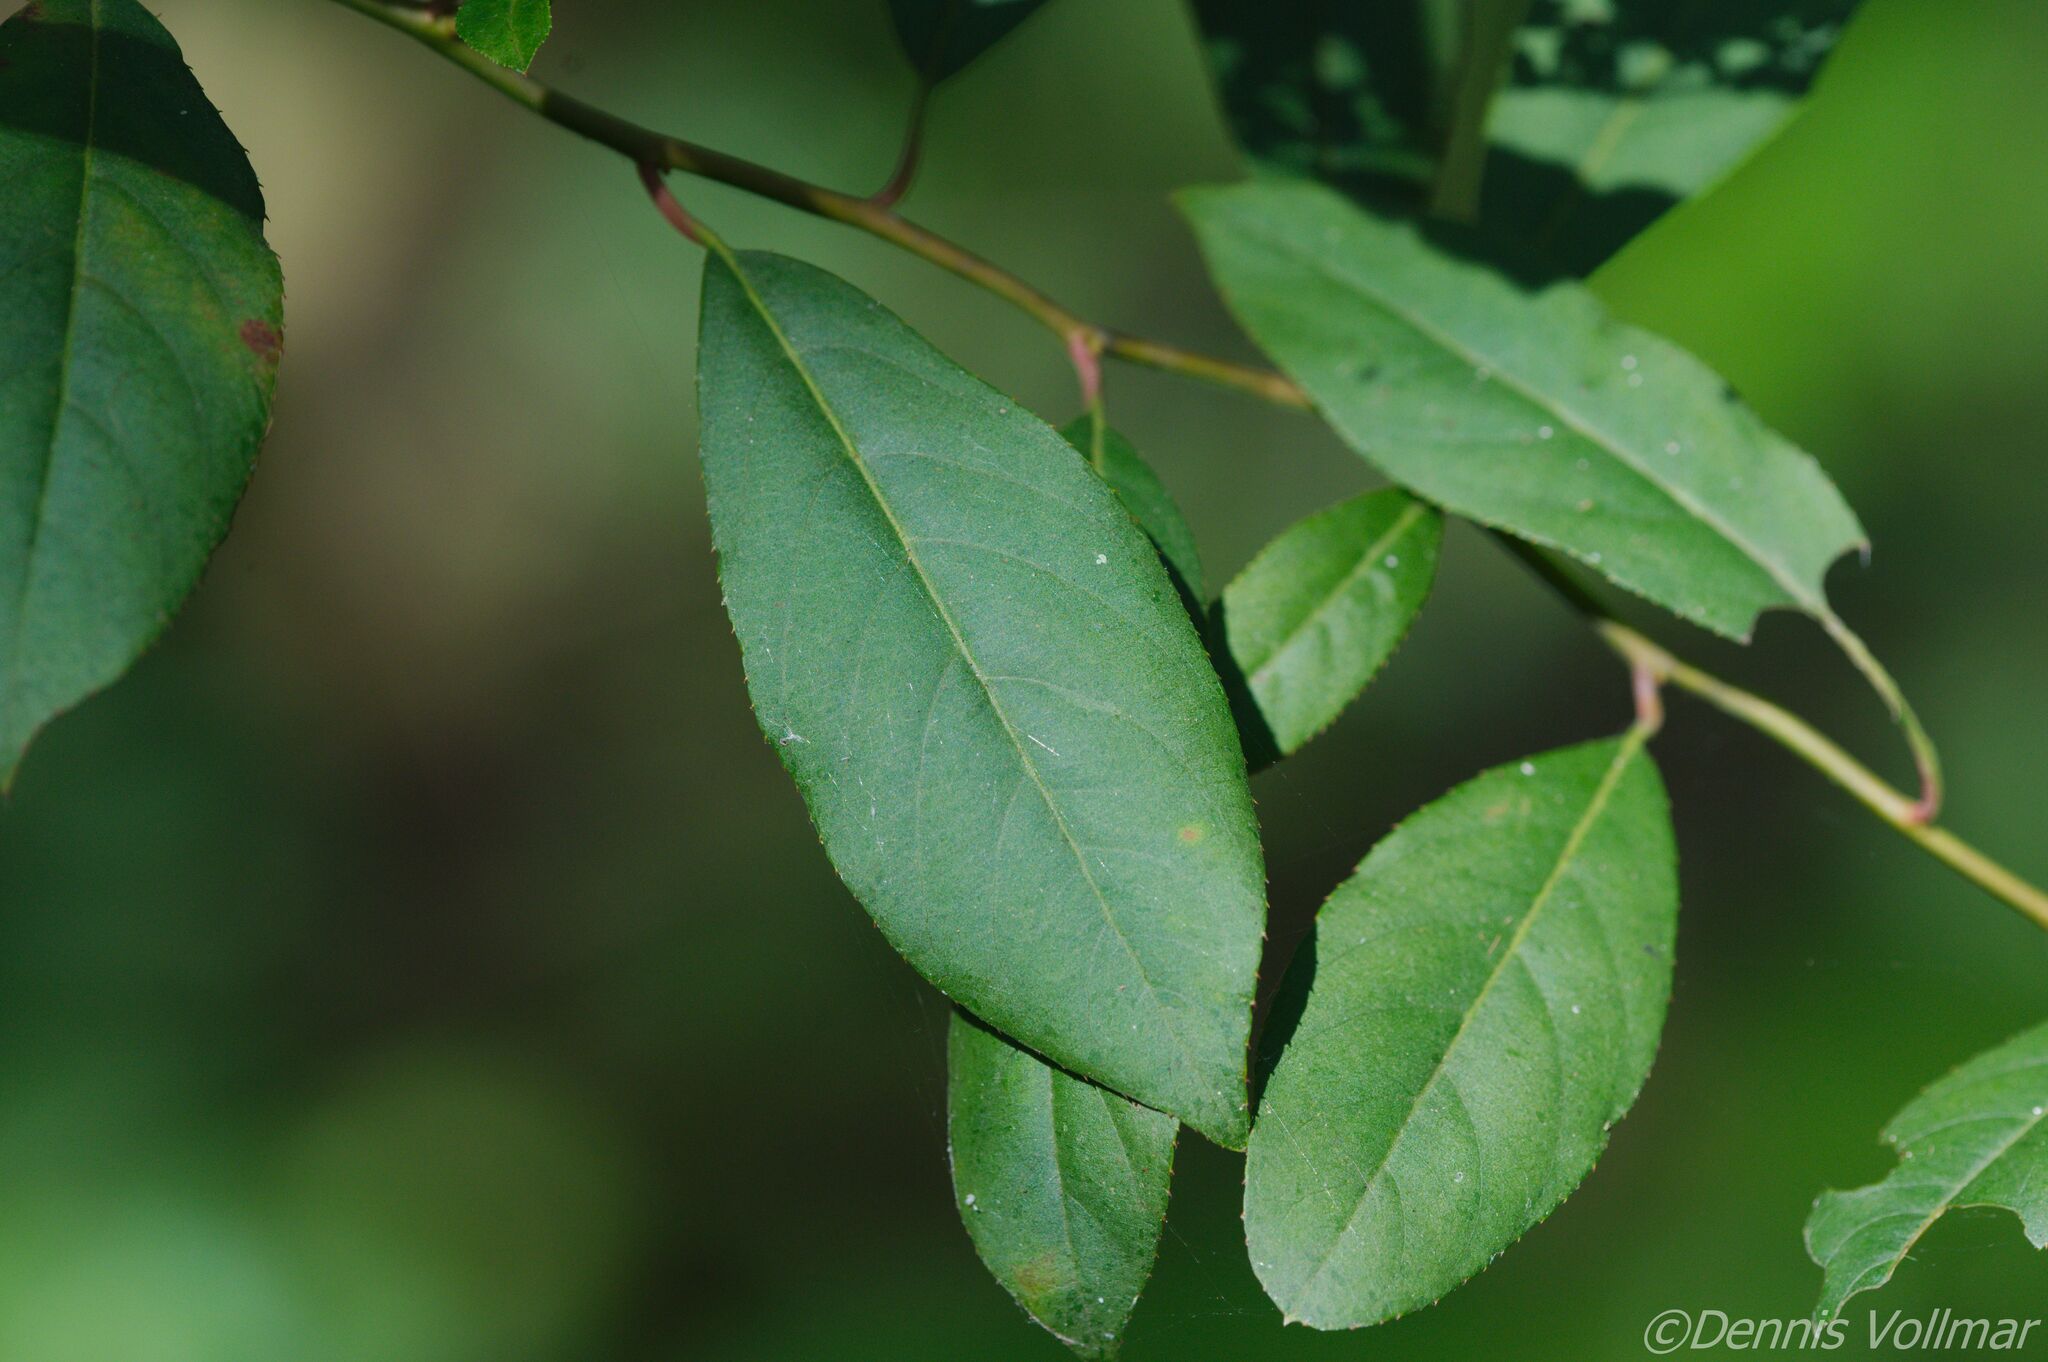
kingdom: Plantae
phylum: Tracheophyta
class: Magnoliopsida
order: Saxifragales
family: Iteaceae
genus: Itea
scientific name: Itea virginica
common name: Sweetspire
